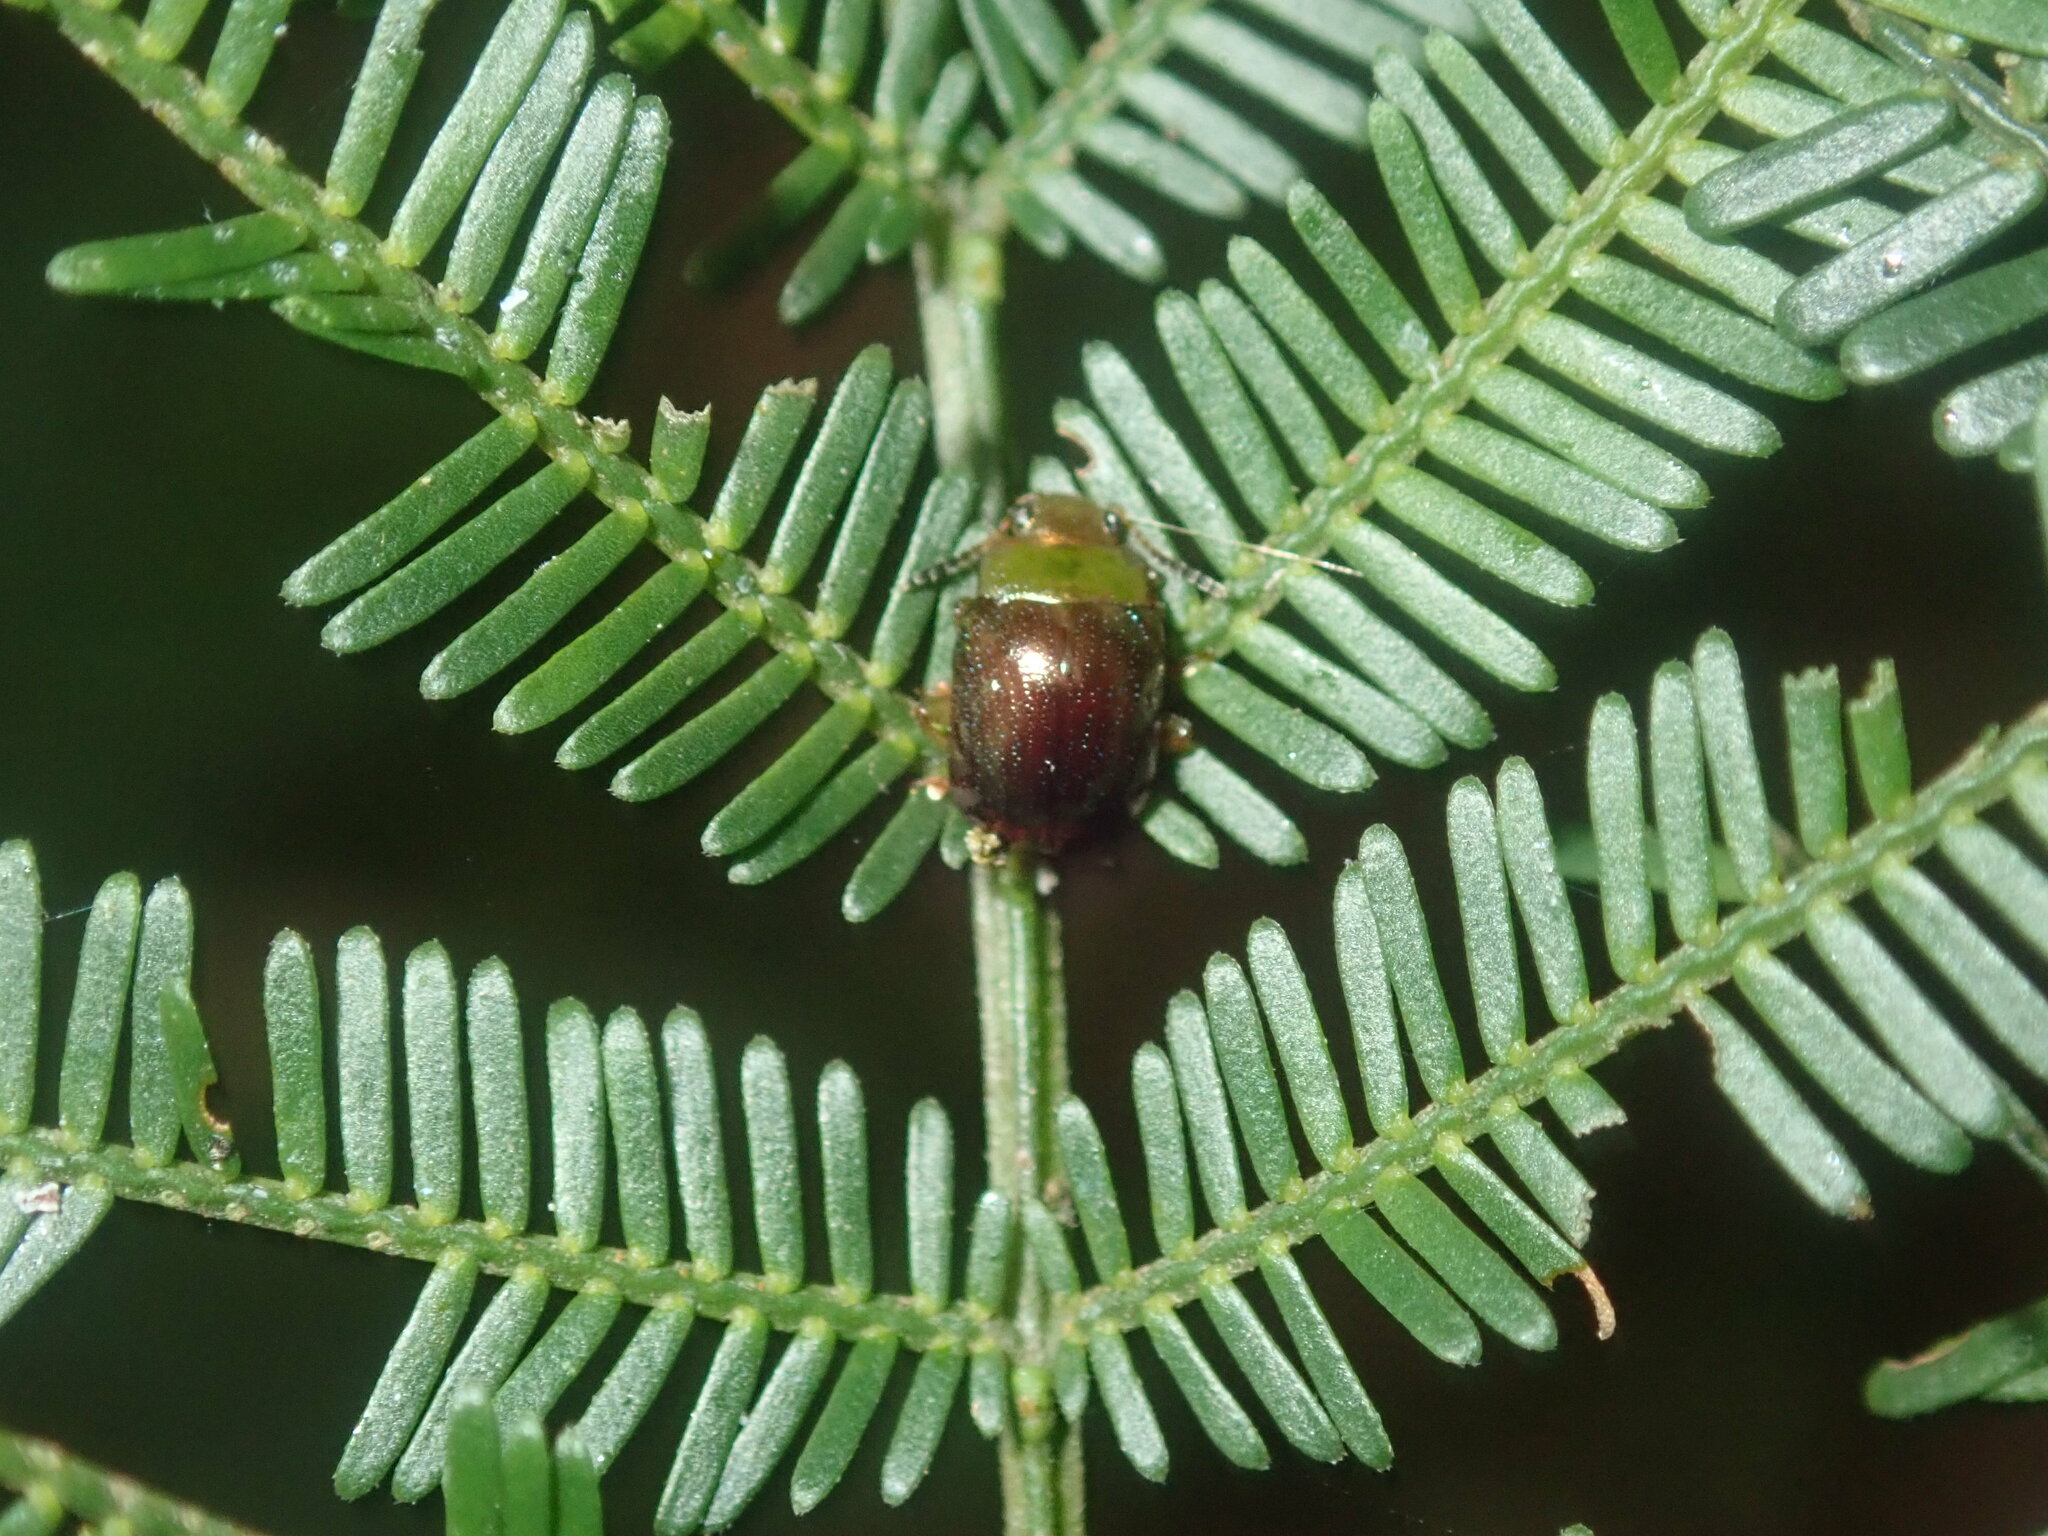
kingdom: Animalia
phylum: Arthropoda
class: Insecta
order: Coleoptera
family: Chrysomelidae
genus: Calomela
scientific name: Calomela
